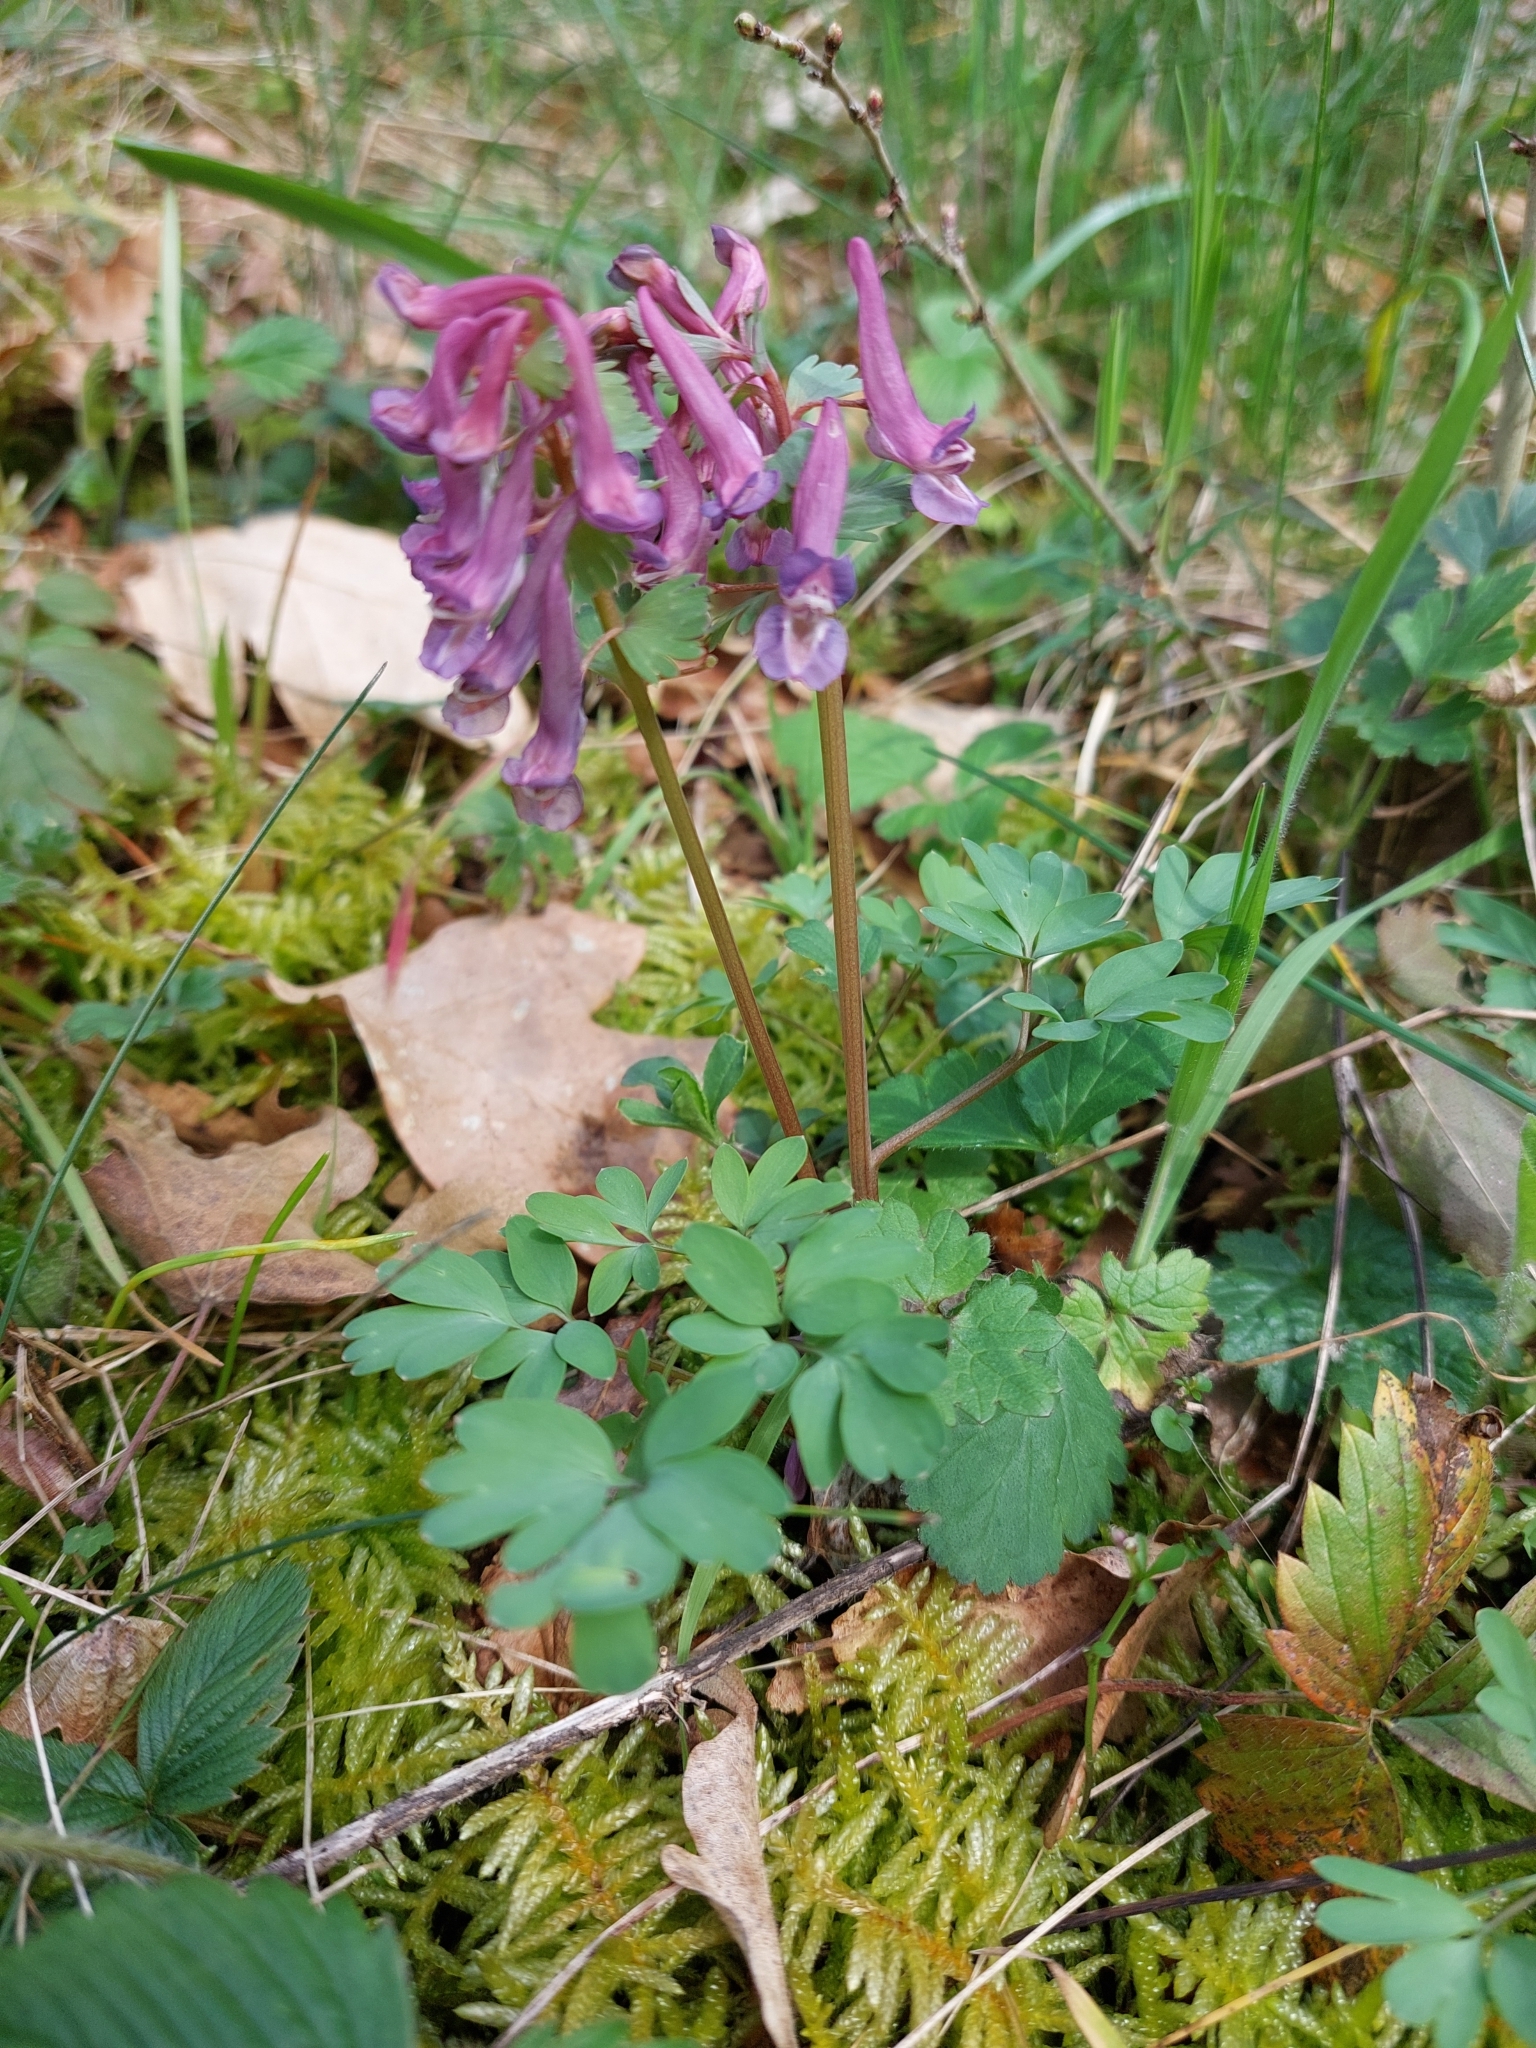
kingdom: Plantae
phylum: Tracheophyta
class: Magnoliopsida
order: Ranunculales
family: Papaveraceae
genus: Corydalis
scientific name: Corydalis solida
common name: Bird-in-a-bush
